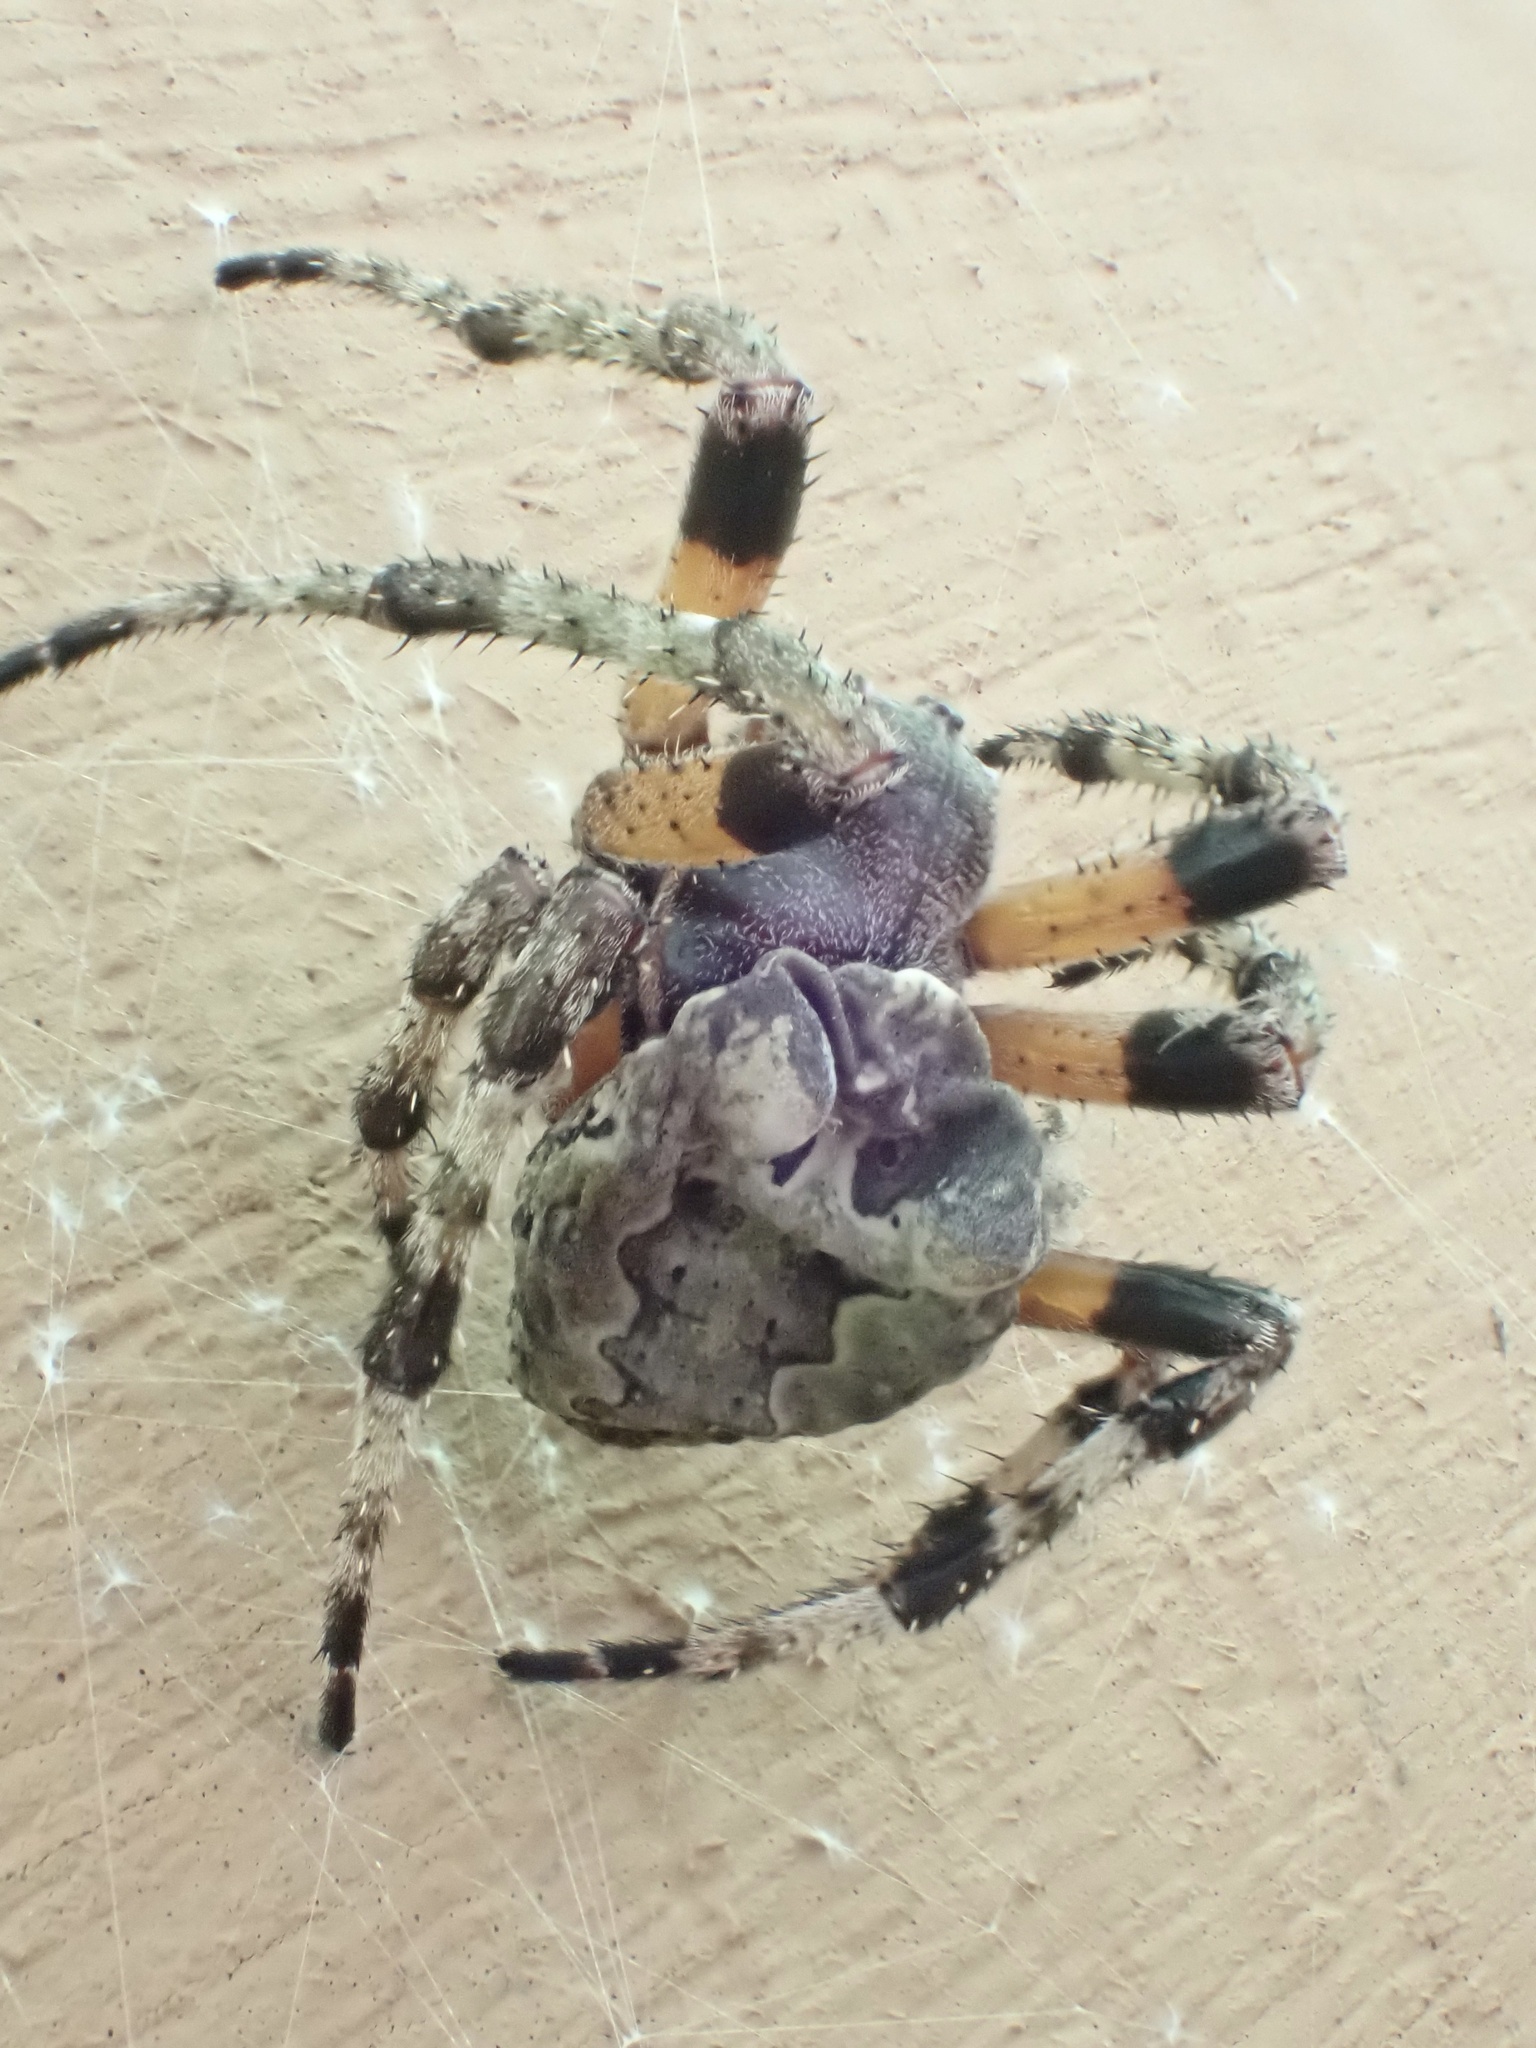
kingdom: Animalia
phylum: Arthropoda
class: Arachnida
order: Araneae
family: Araneidae
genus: Araneus
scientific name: Araneus bicentenarius
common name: Giant lichen orbweaver
